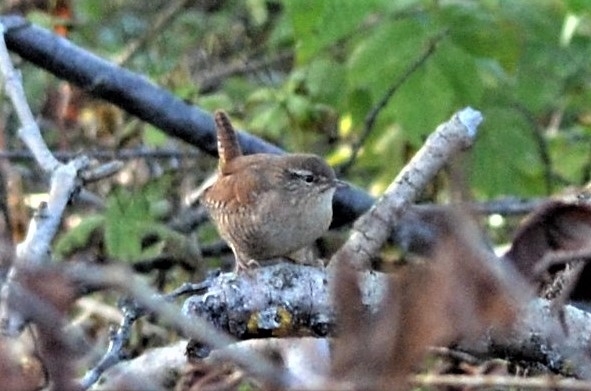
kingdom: Animalia
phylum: Chordata
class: Aves
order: Passeriformes
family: Troglodytidae
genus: Troglodytes
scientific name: Troglodytes troglodytes
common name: Eurasian wren
